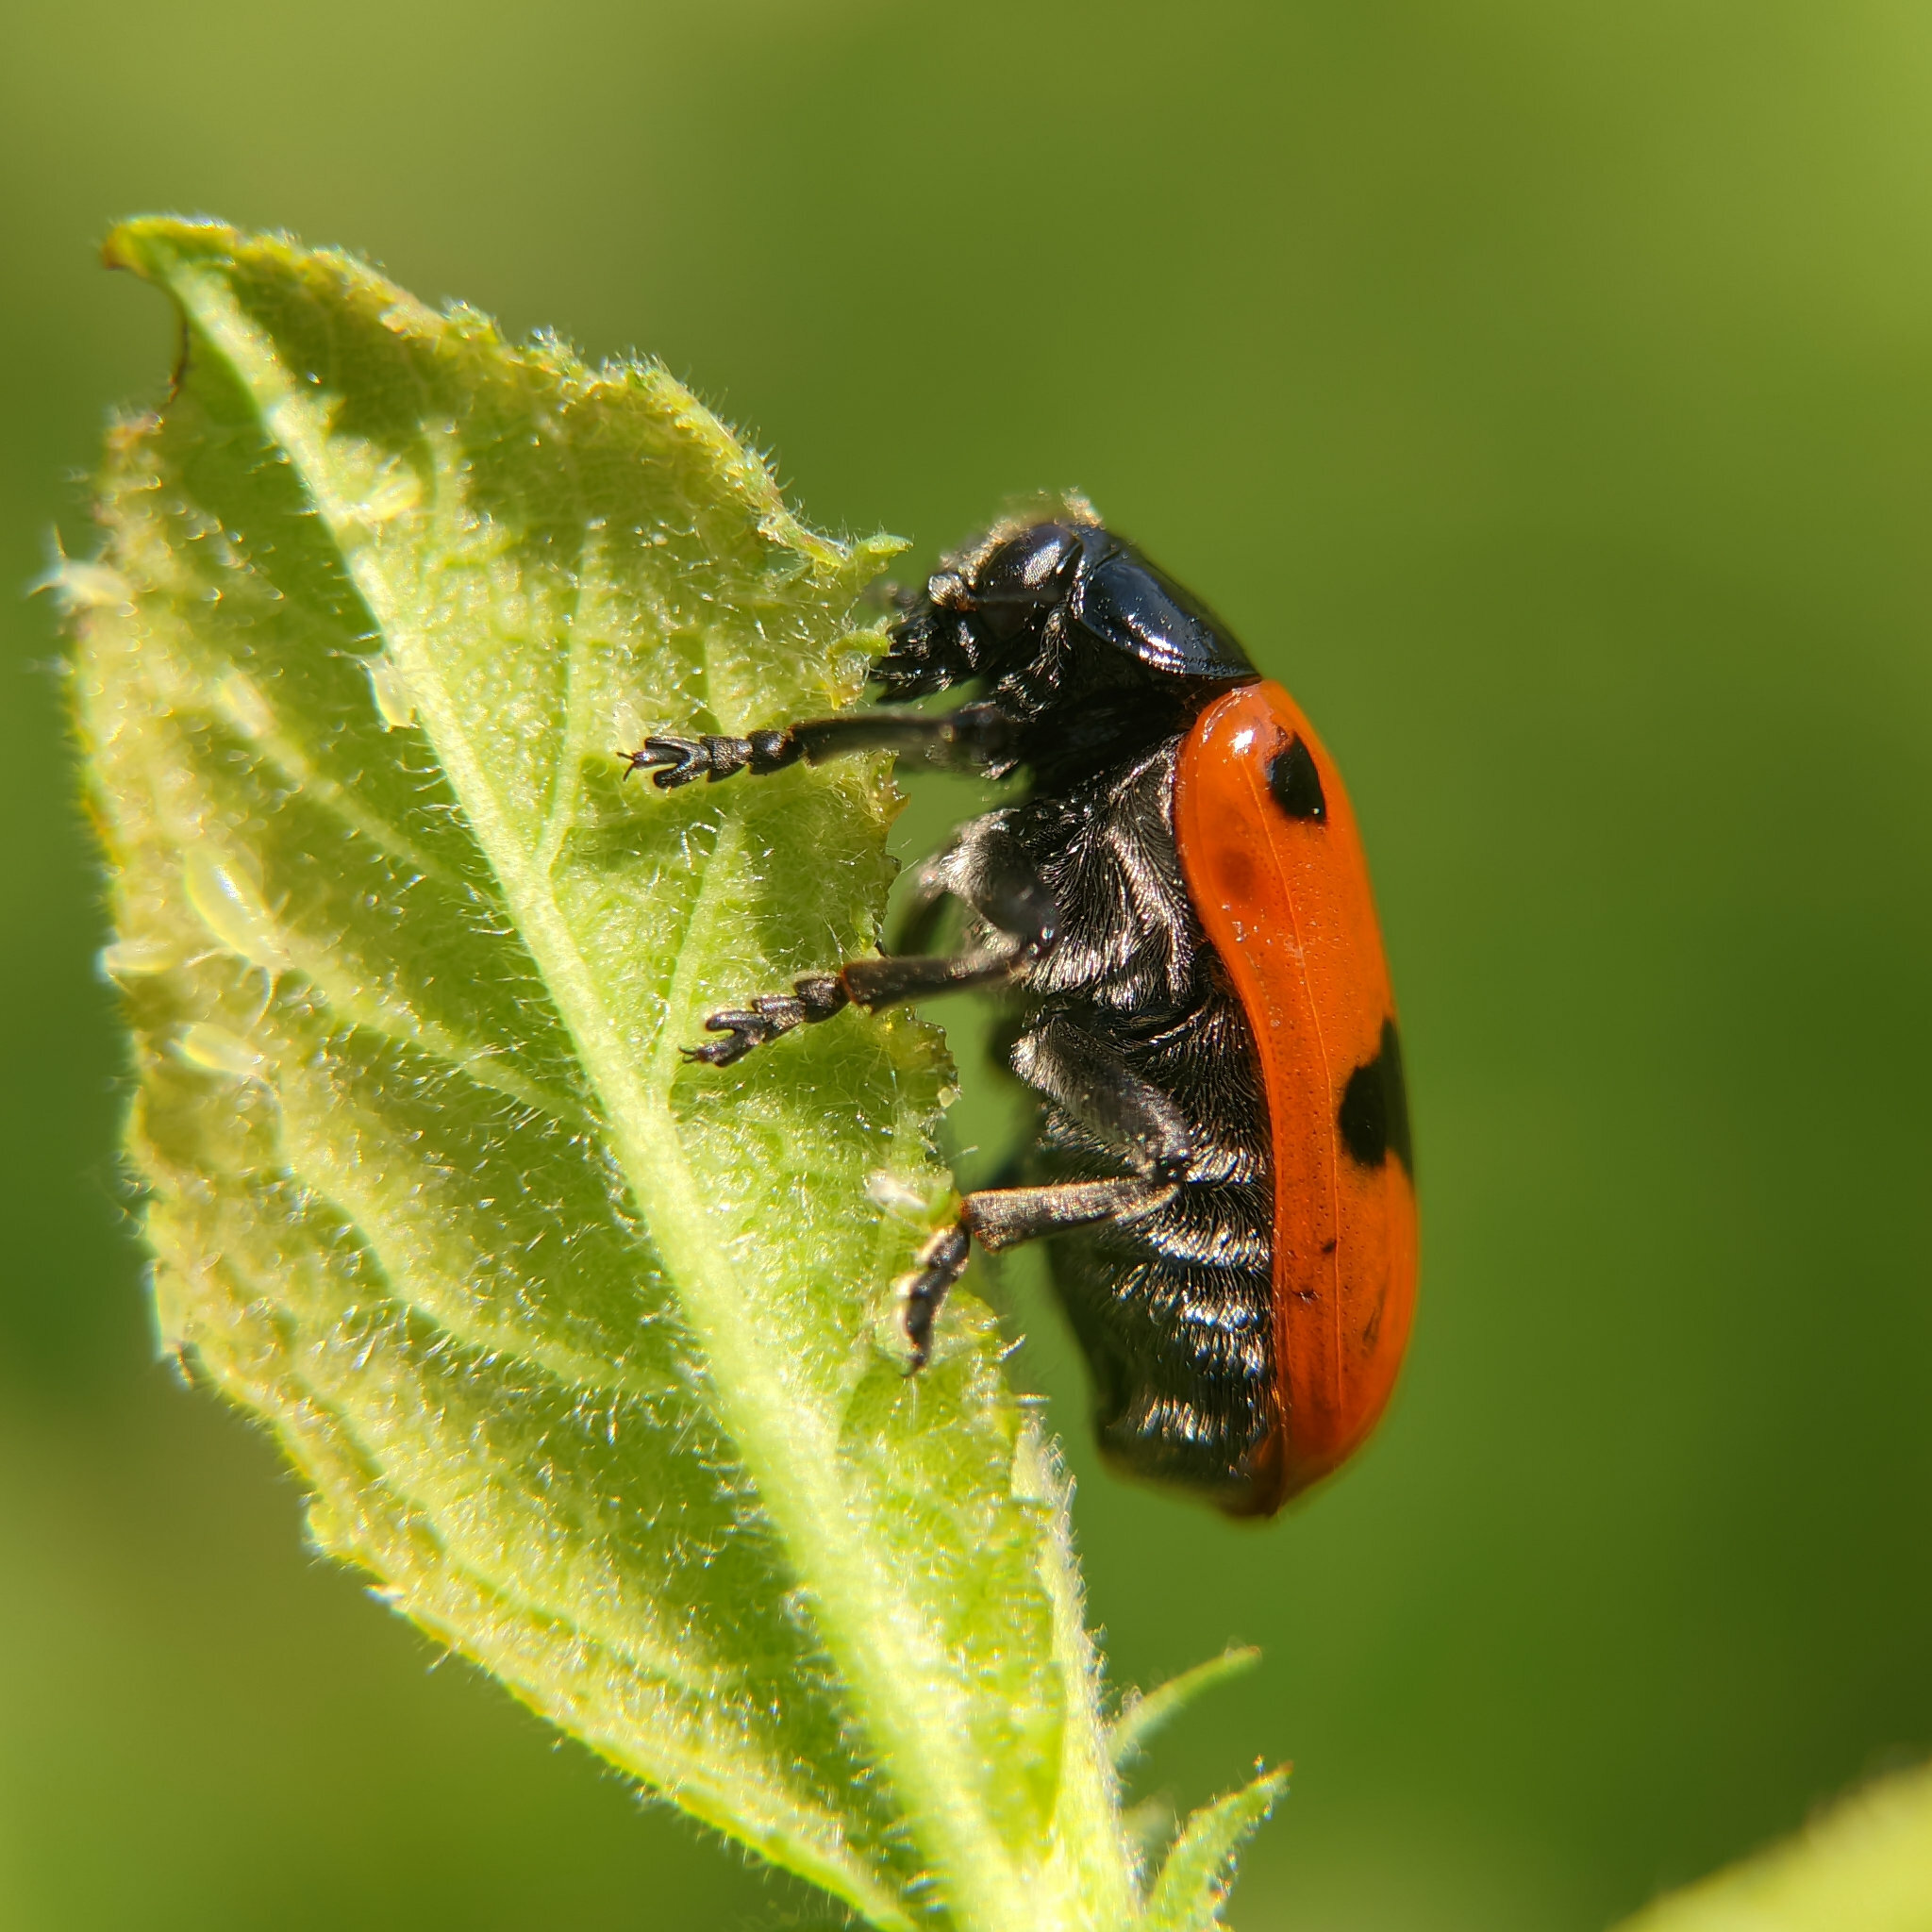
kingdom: Animalia
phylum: Arthropoda
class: Insecta
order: Coleoptera
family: Chrysomelidae
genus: Clytra
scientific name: Clytra laeviuscula
